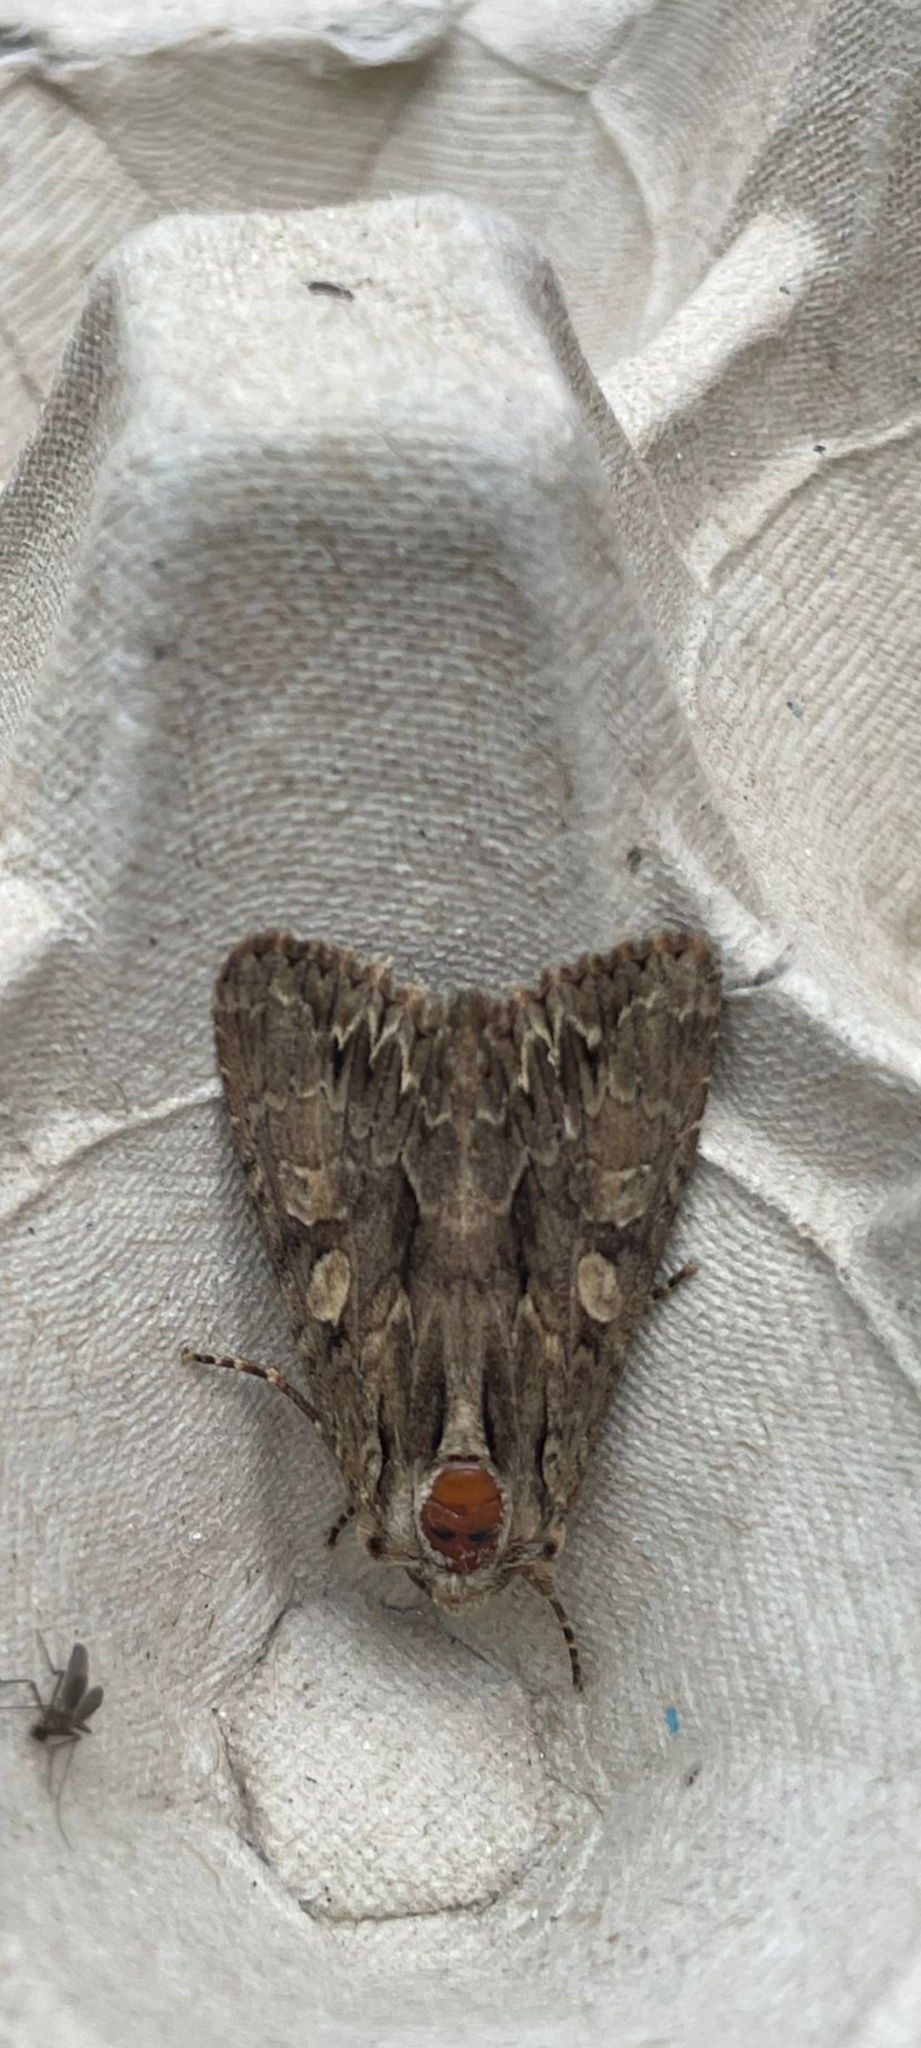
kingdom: Animalia
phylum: Arthropoda
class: Insecta
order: Lepidoptera
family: Noctuidae
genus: Apamea
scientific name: Apamea monoglypha
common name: Dark arches
